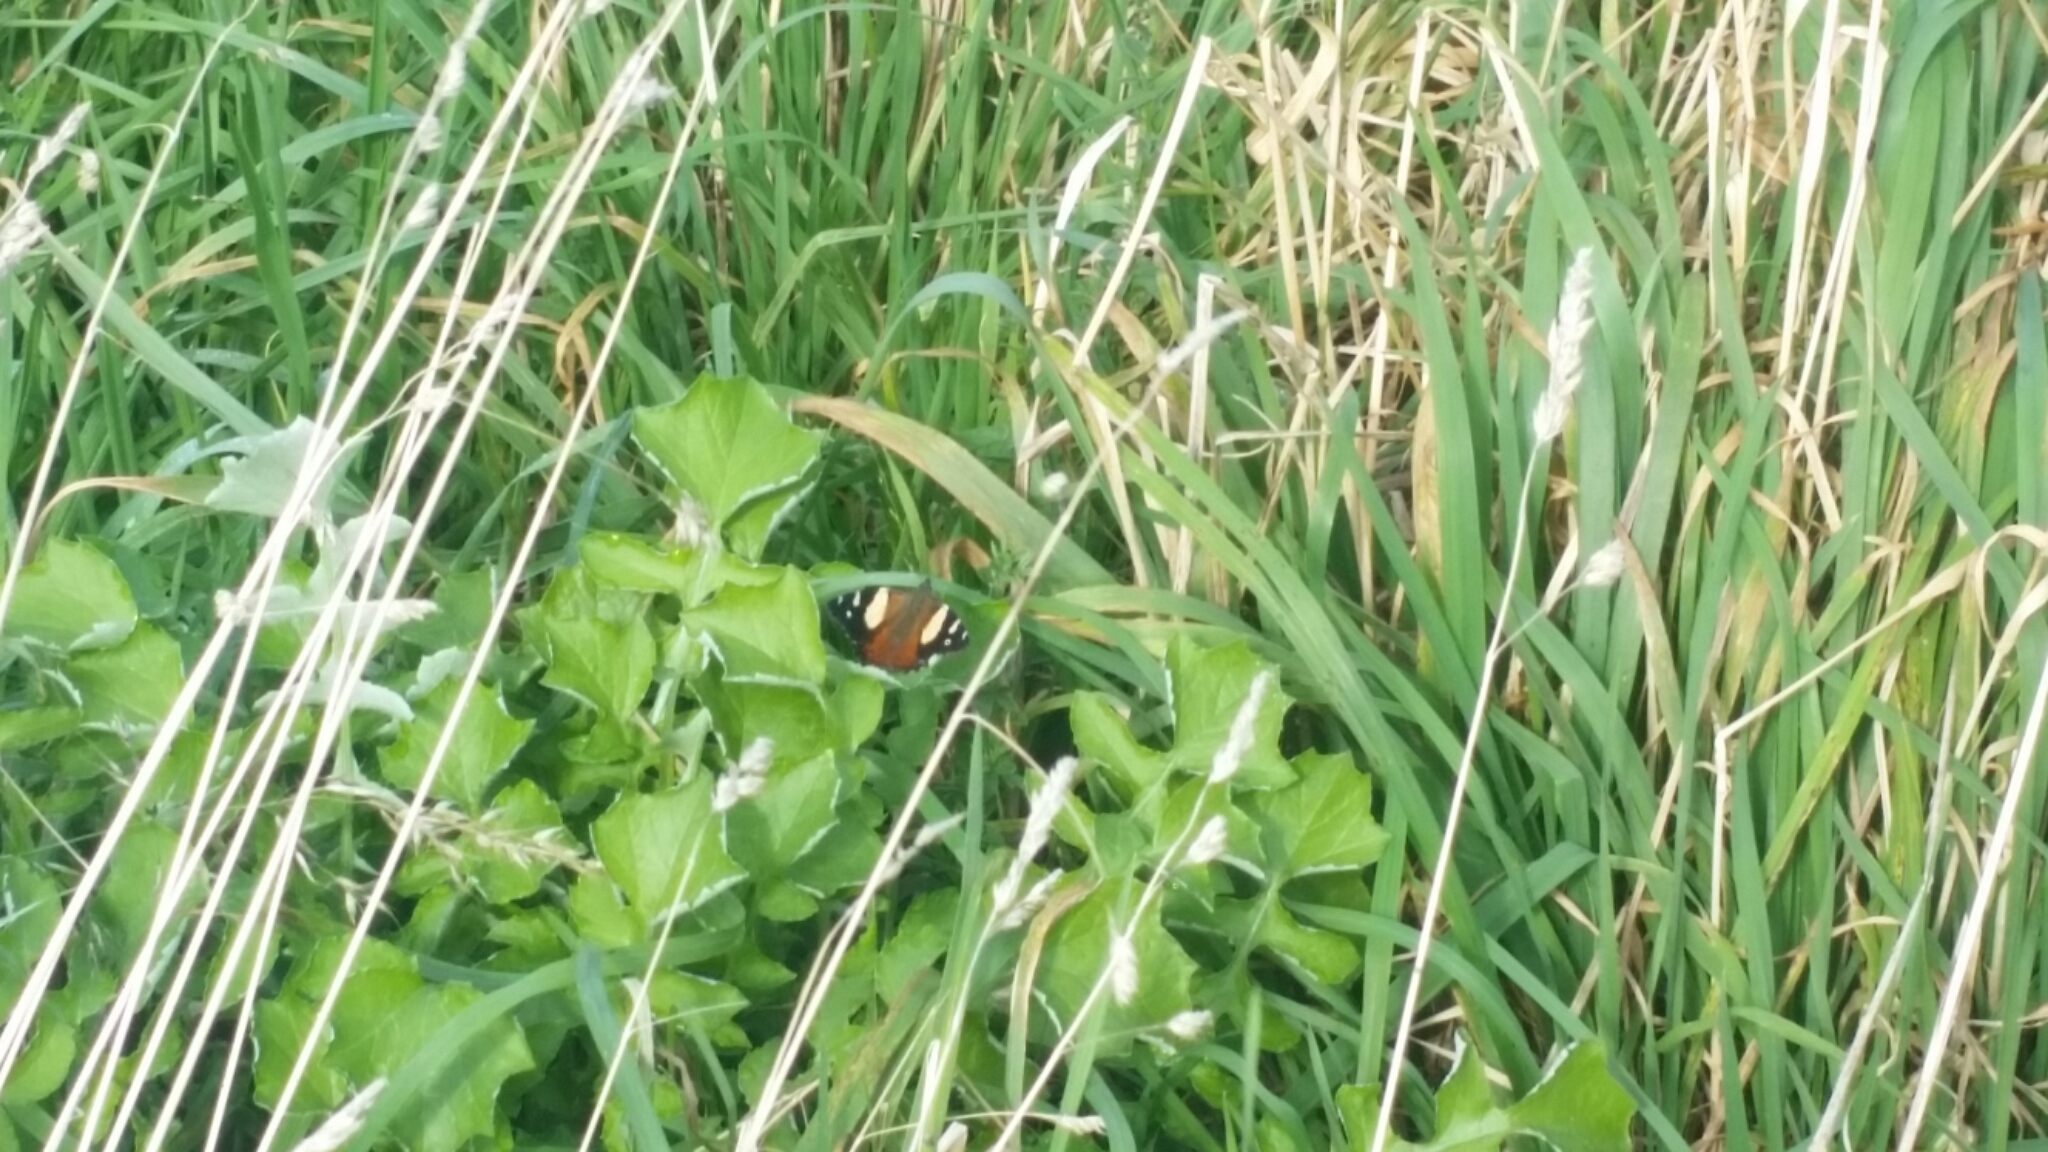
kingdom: Animalia
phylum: Arthropoda
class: Insecta
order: Lepidoptera
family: Nymphalidae
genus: Vanessa
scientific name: Vanessa itea
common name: Yellow admiral
